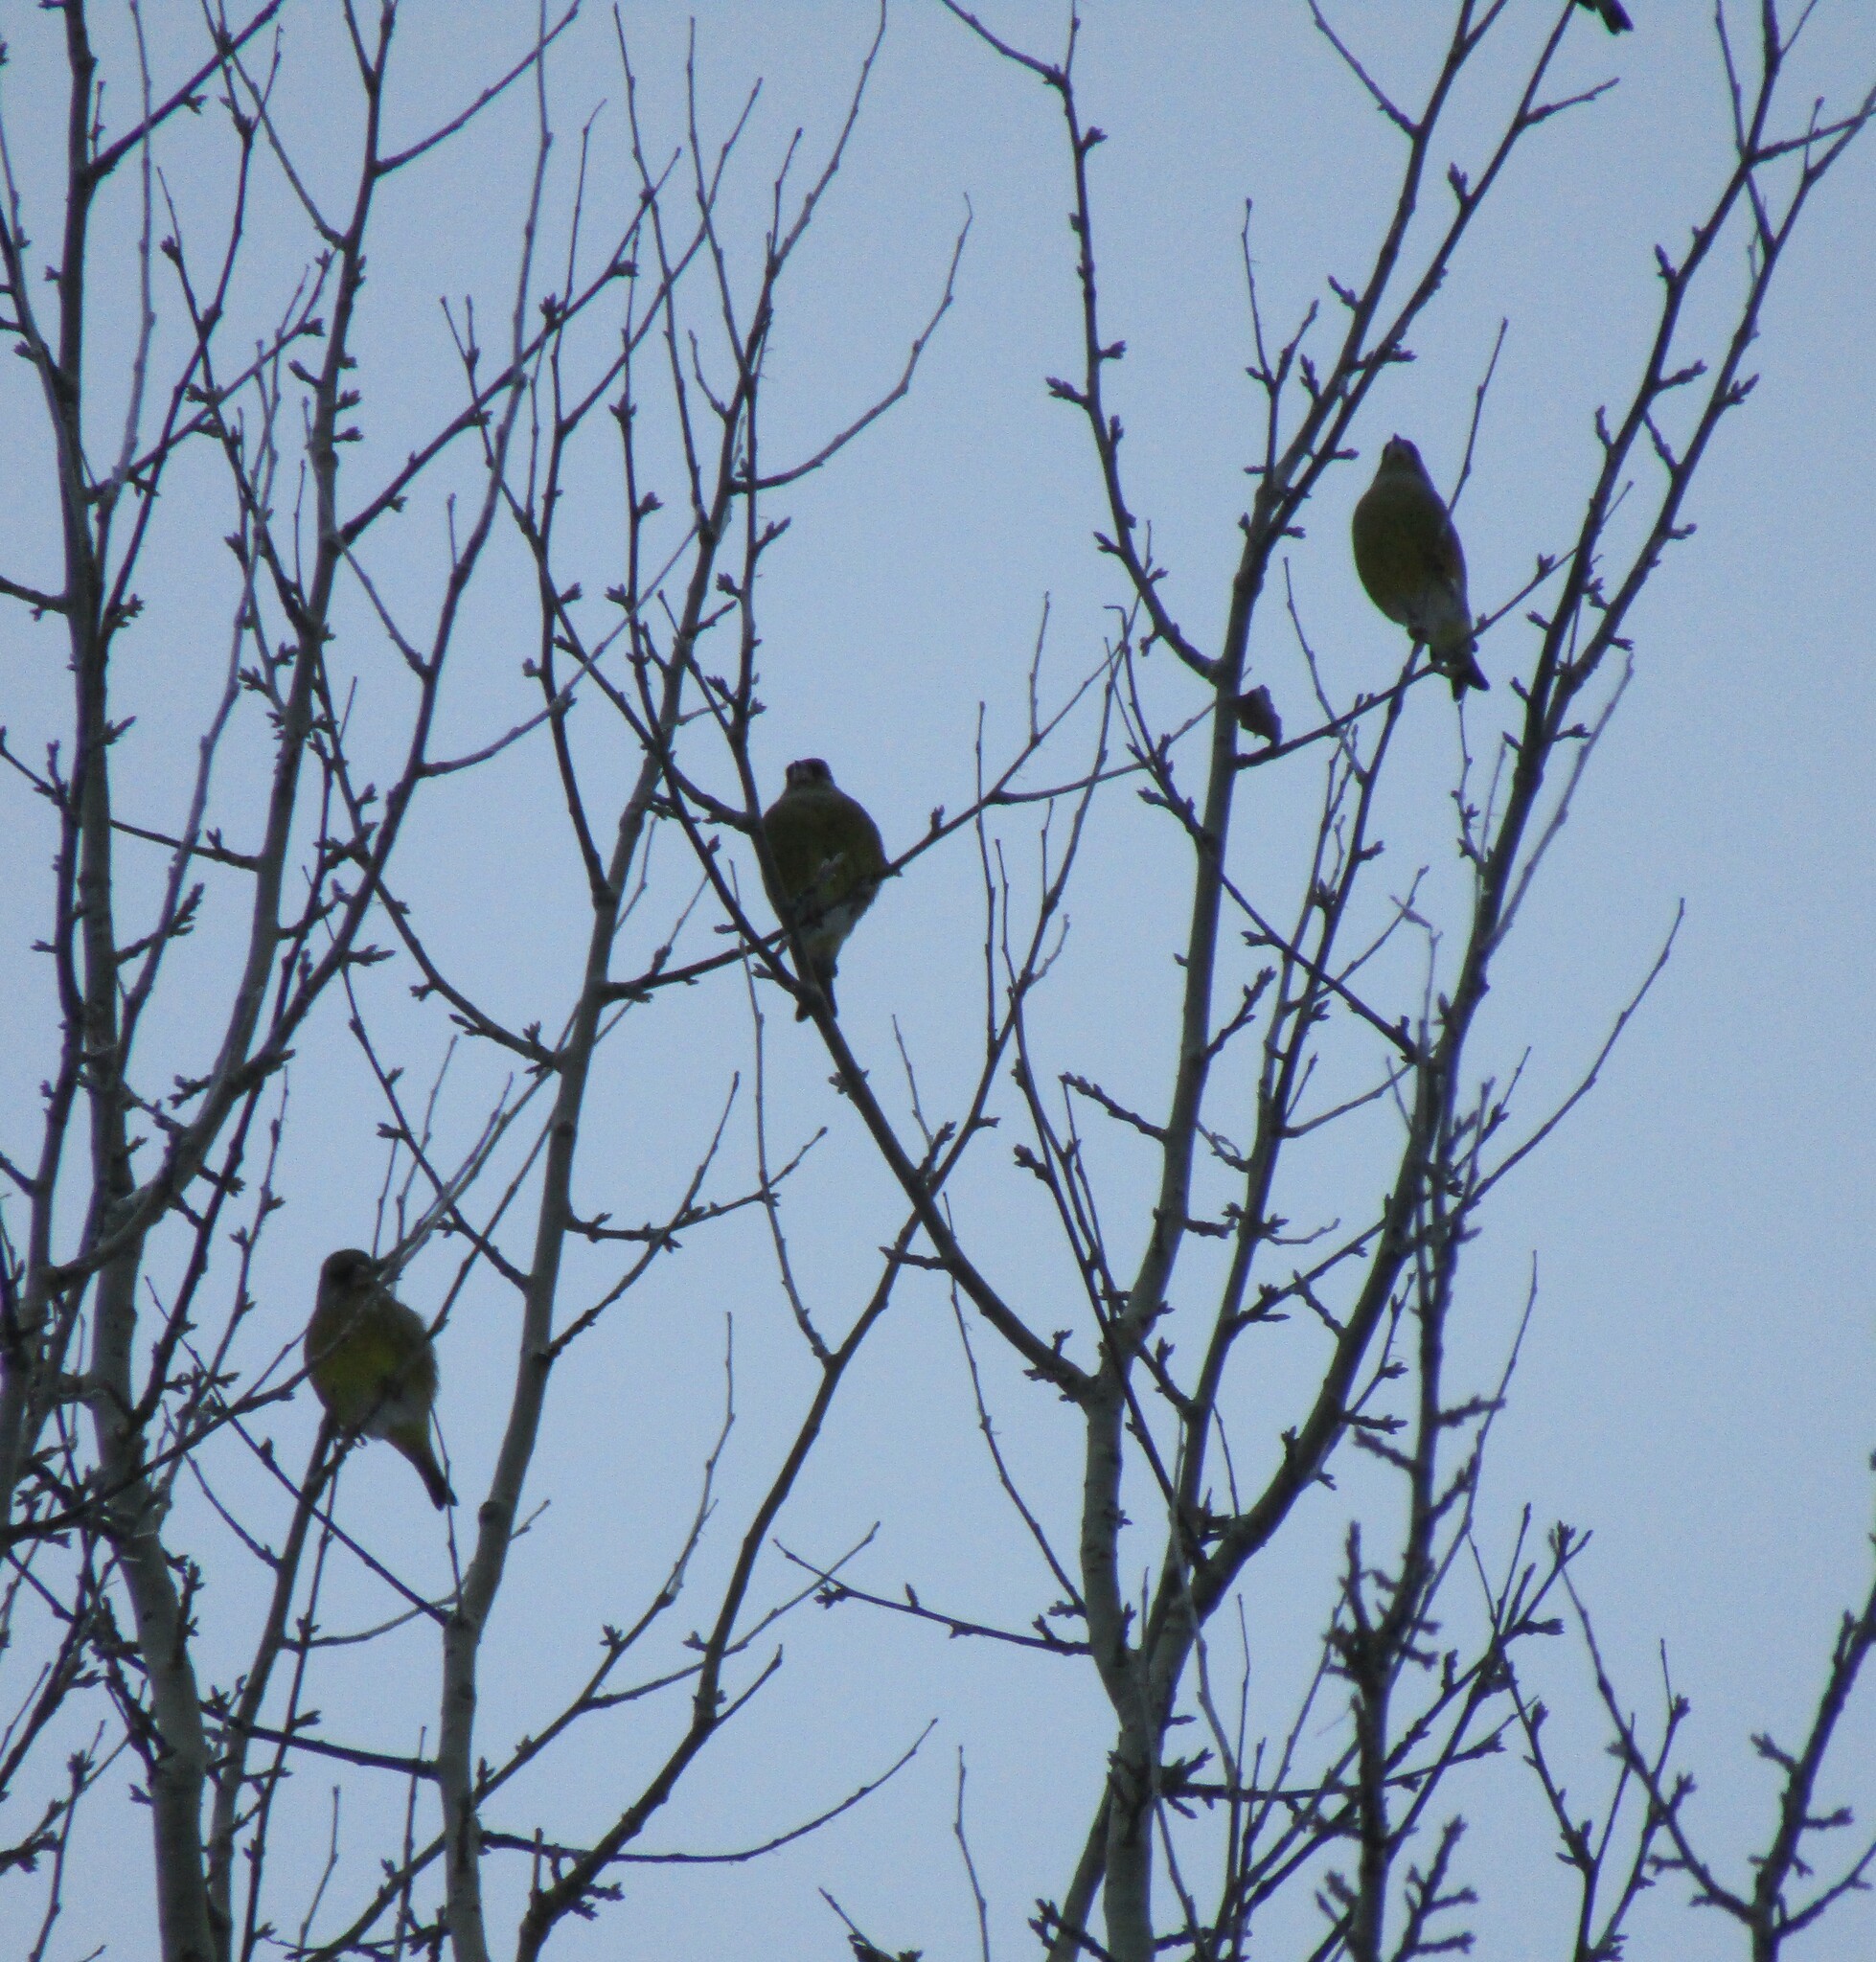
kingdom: Plantae
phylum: Tracheophyta
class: Liliopsida
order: Poales
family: Poaceae
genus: Chloris
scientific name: Chloris chloris
